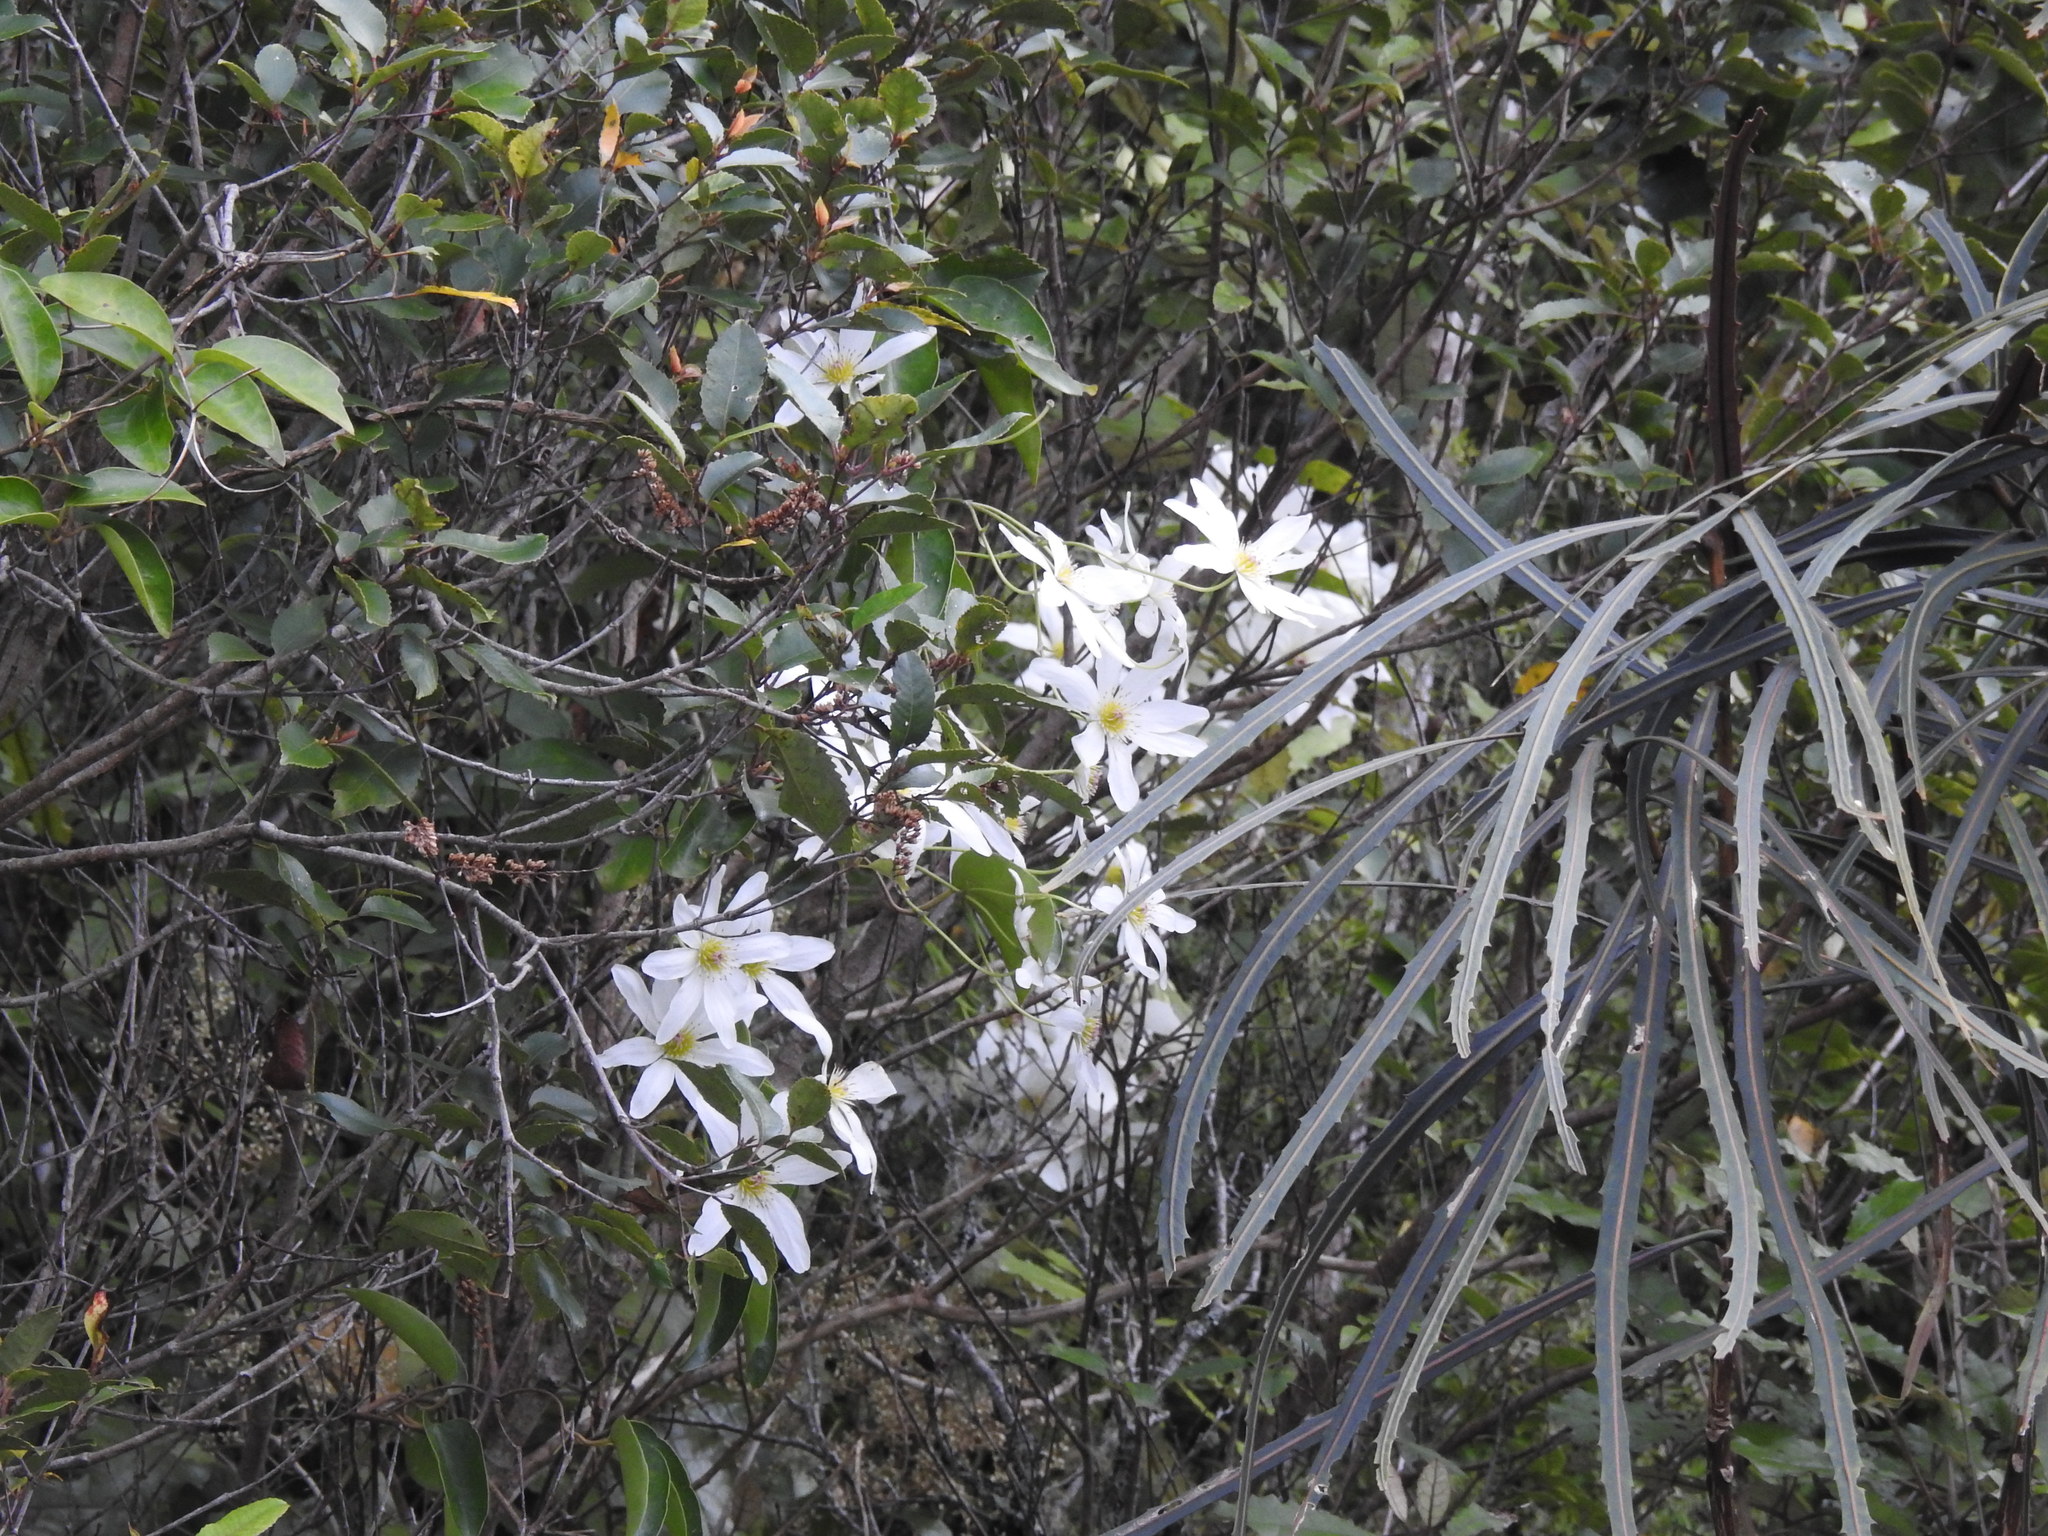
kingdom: Plantae
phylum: Tracheophyta
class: Magnoliopsida
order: Ranunculales
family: Ranunculaceae
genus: Clematis
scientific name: Clematis paniculata
